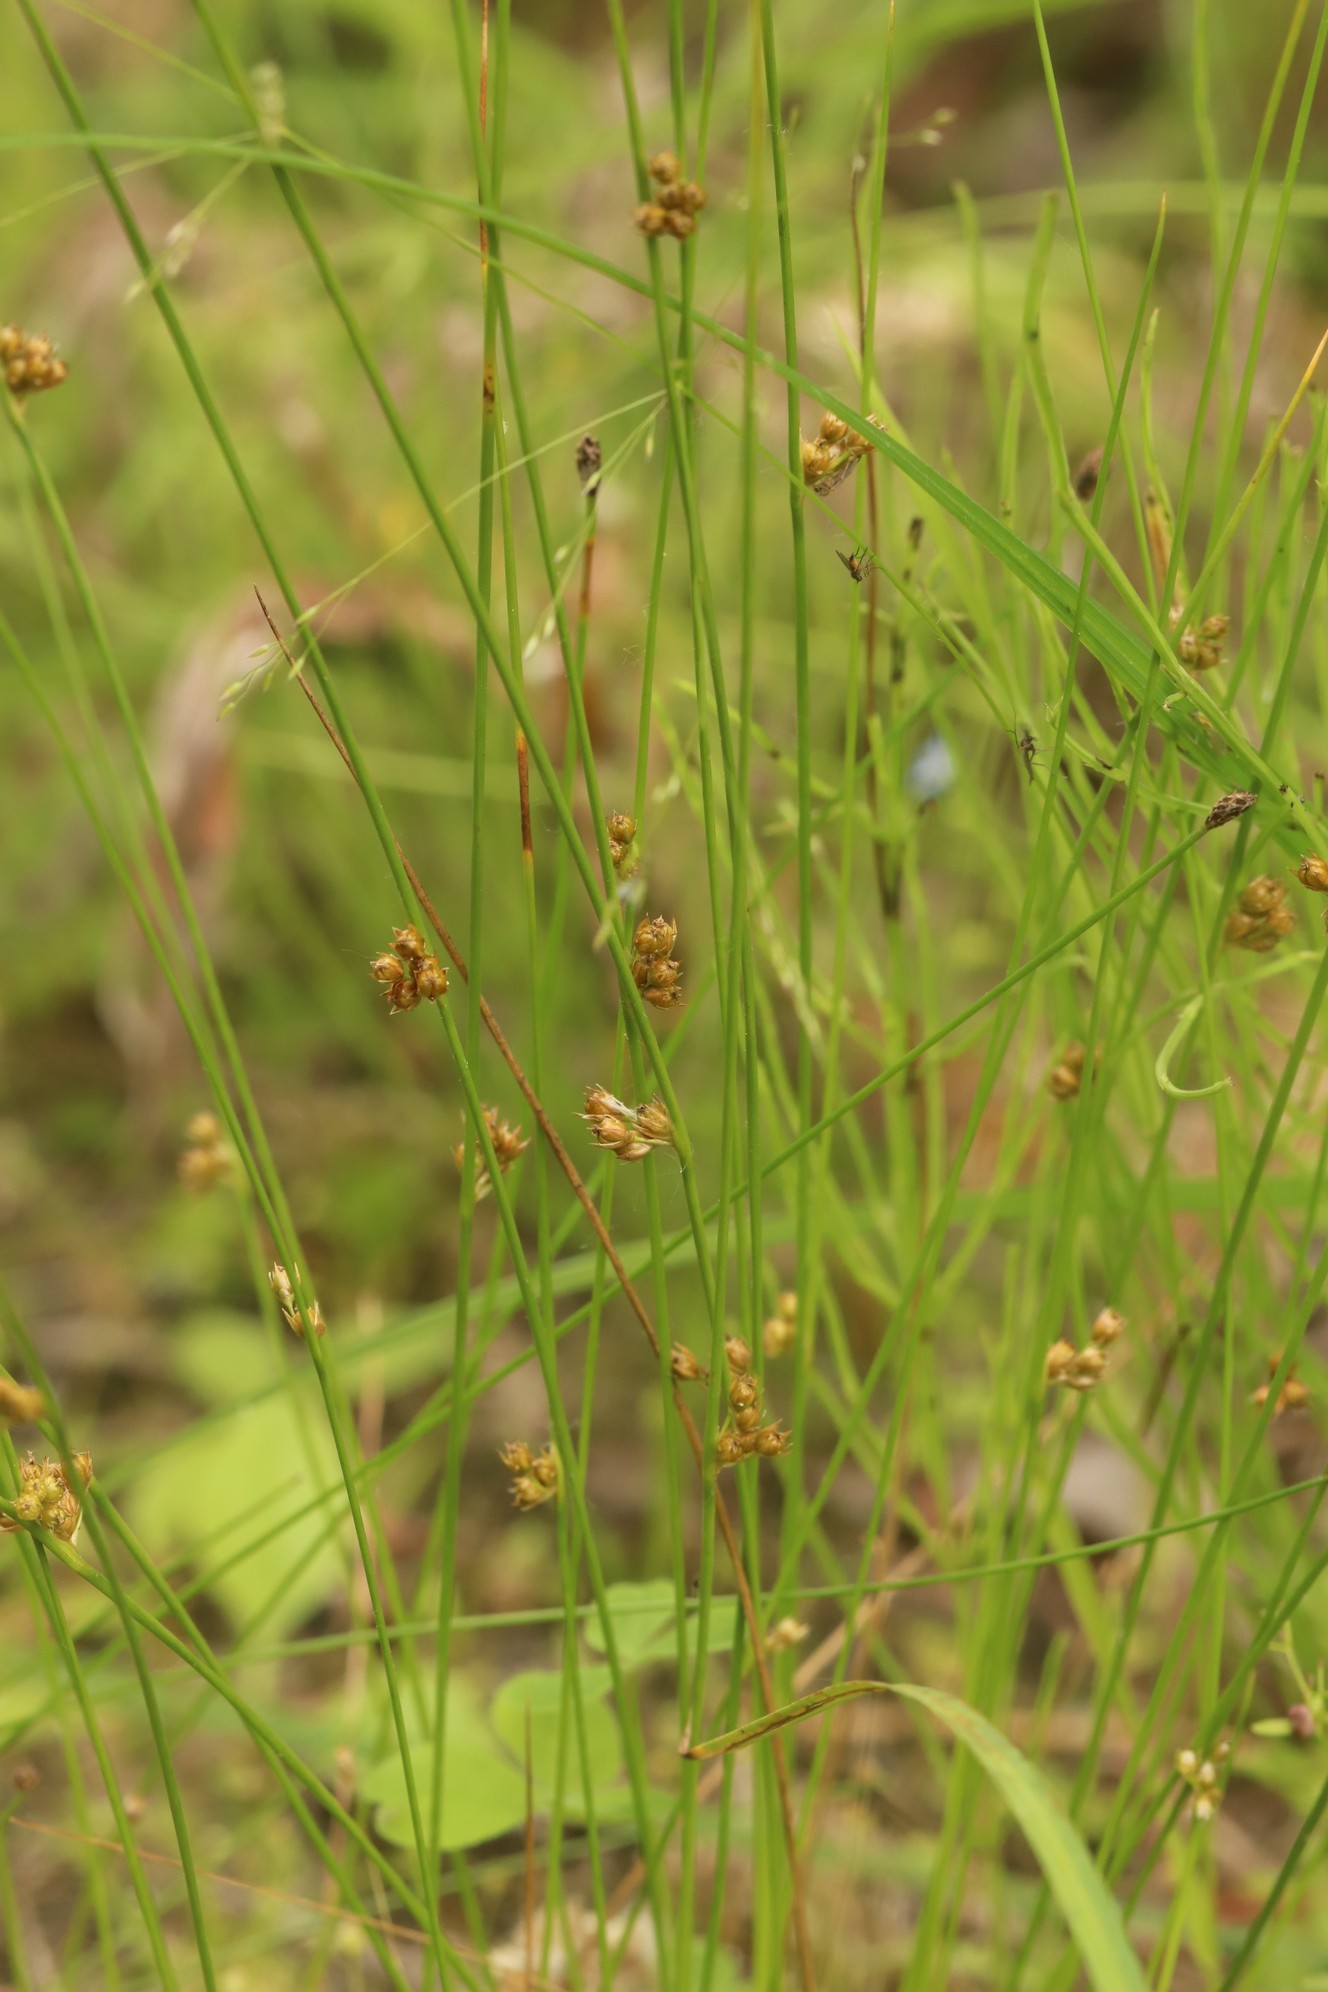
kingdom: Plantae
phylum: Tracheophyta
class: Liliopsida
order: Poales
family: Juncaceae
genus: Juncus
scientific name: Juncus filiformis
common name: Thread rush
